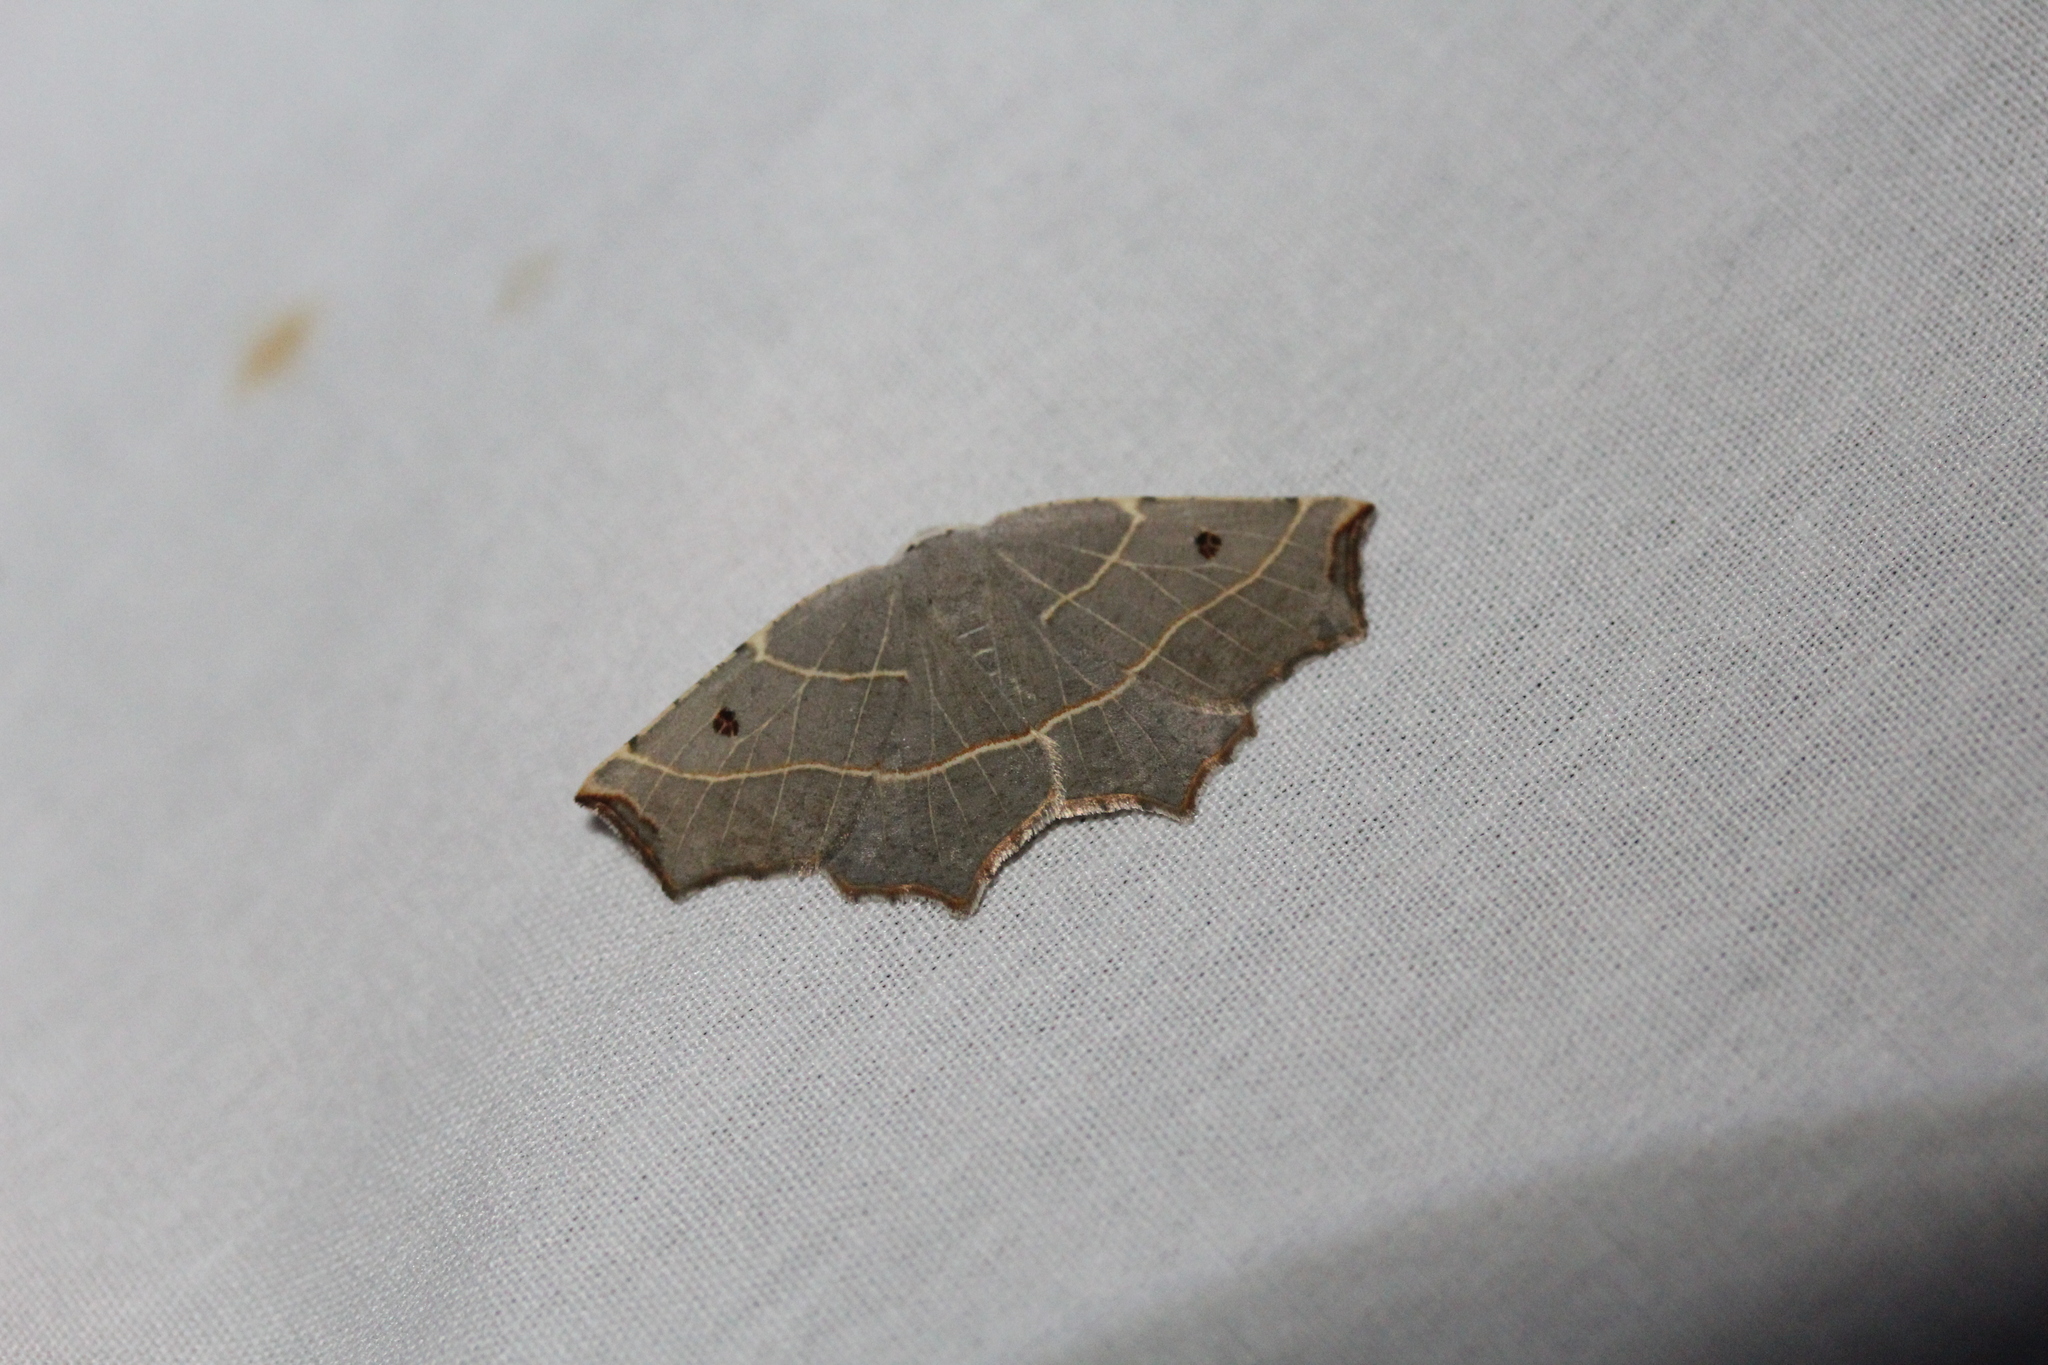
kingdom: Animalia
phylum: Arthropoda
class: Insecta
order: Lepidoptera
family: Geometridae
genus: Metanema
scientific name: Metanema inatomaria
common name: Pale metanema
